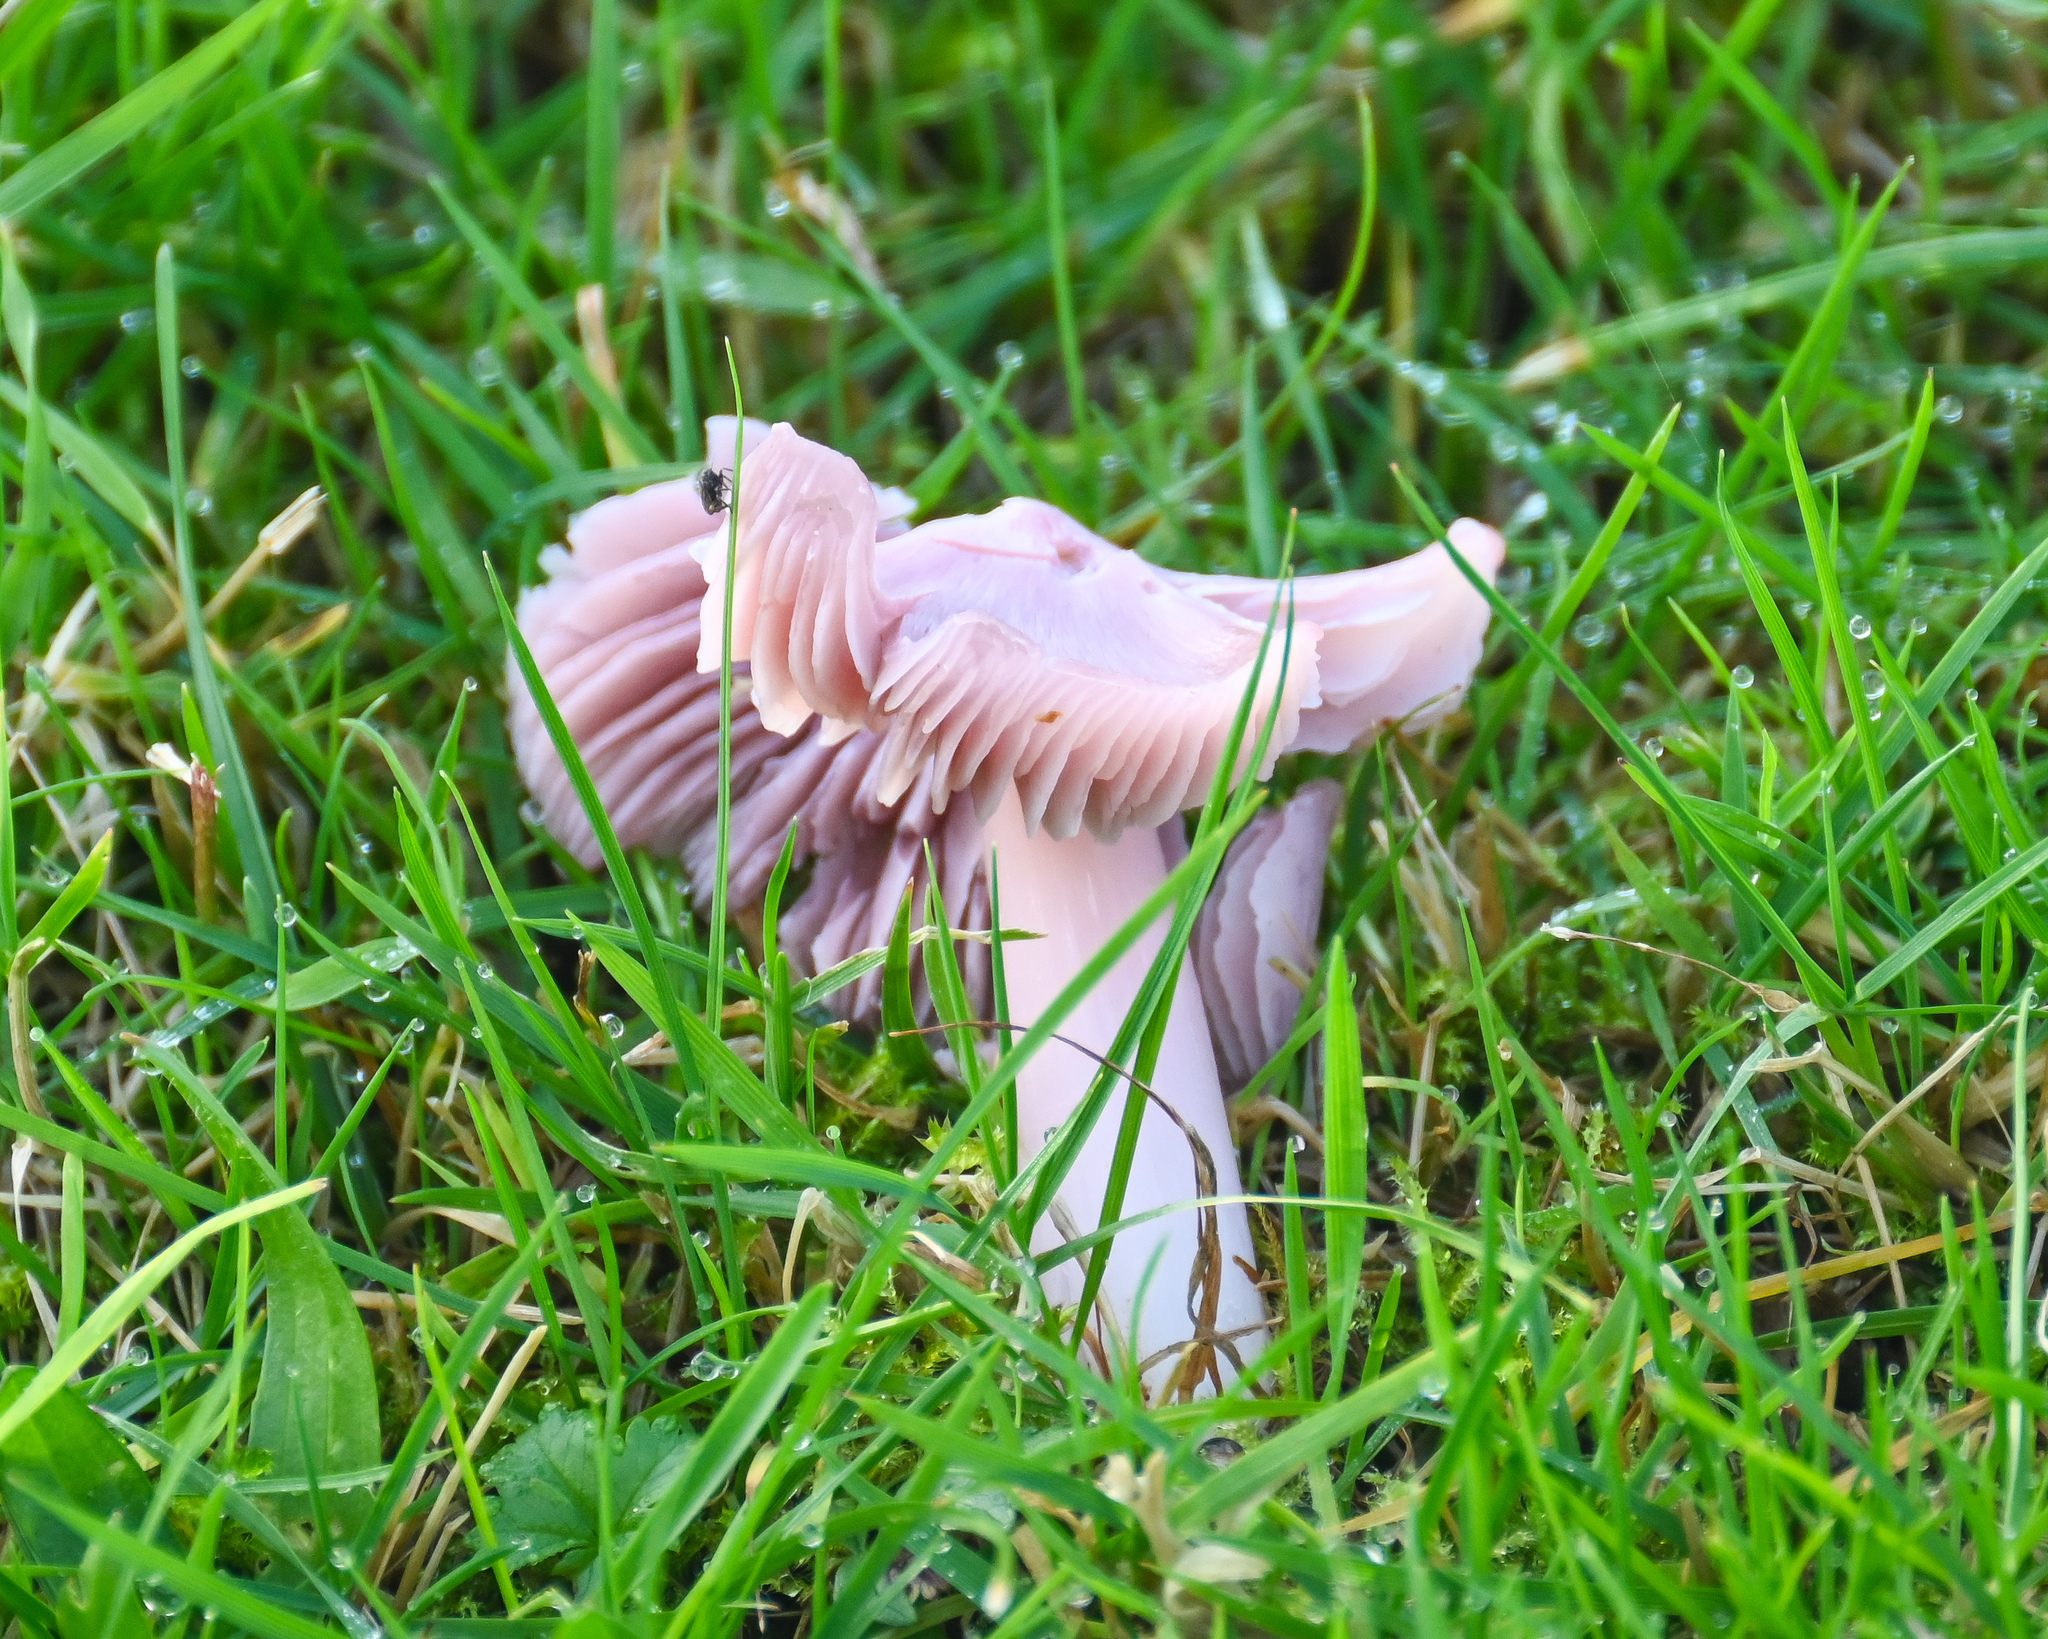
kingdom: Fungi
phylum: Basidiomycota
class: Agaricomycetes
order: Agaricales
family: Hygrophoraceae
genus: Porpolomopsis
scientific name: Porpolomopsis calyptriformis
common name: Pink waxcap
